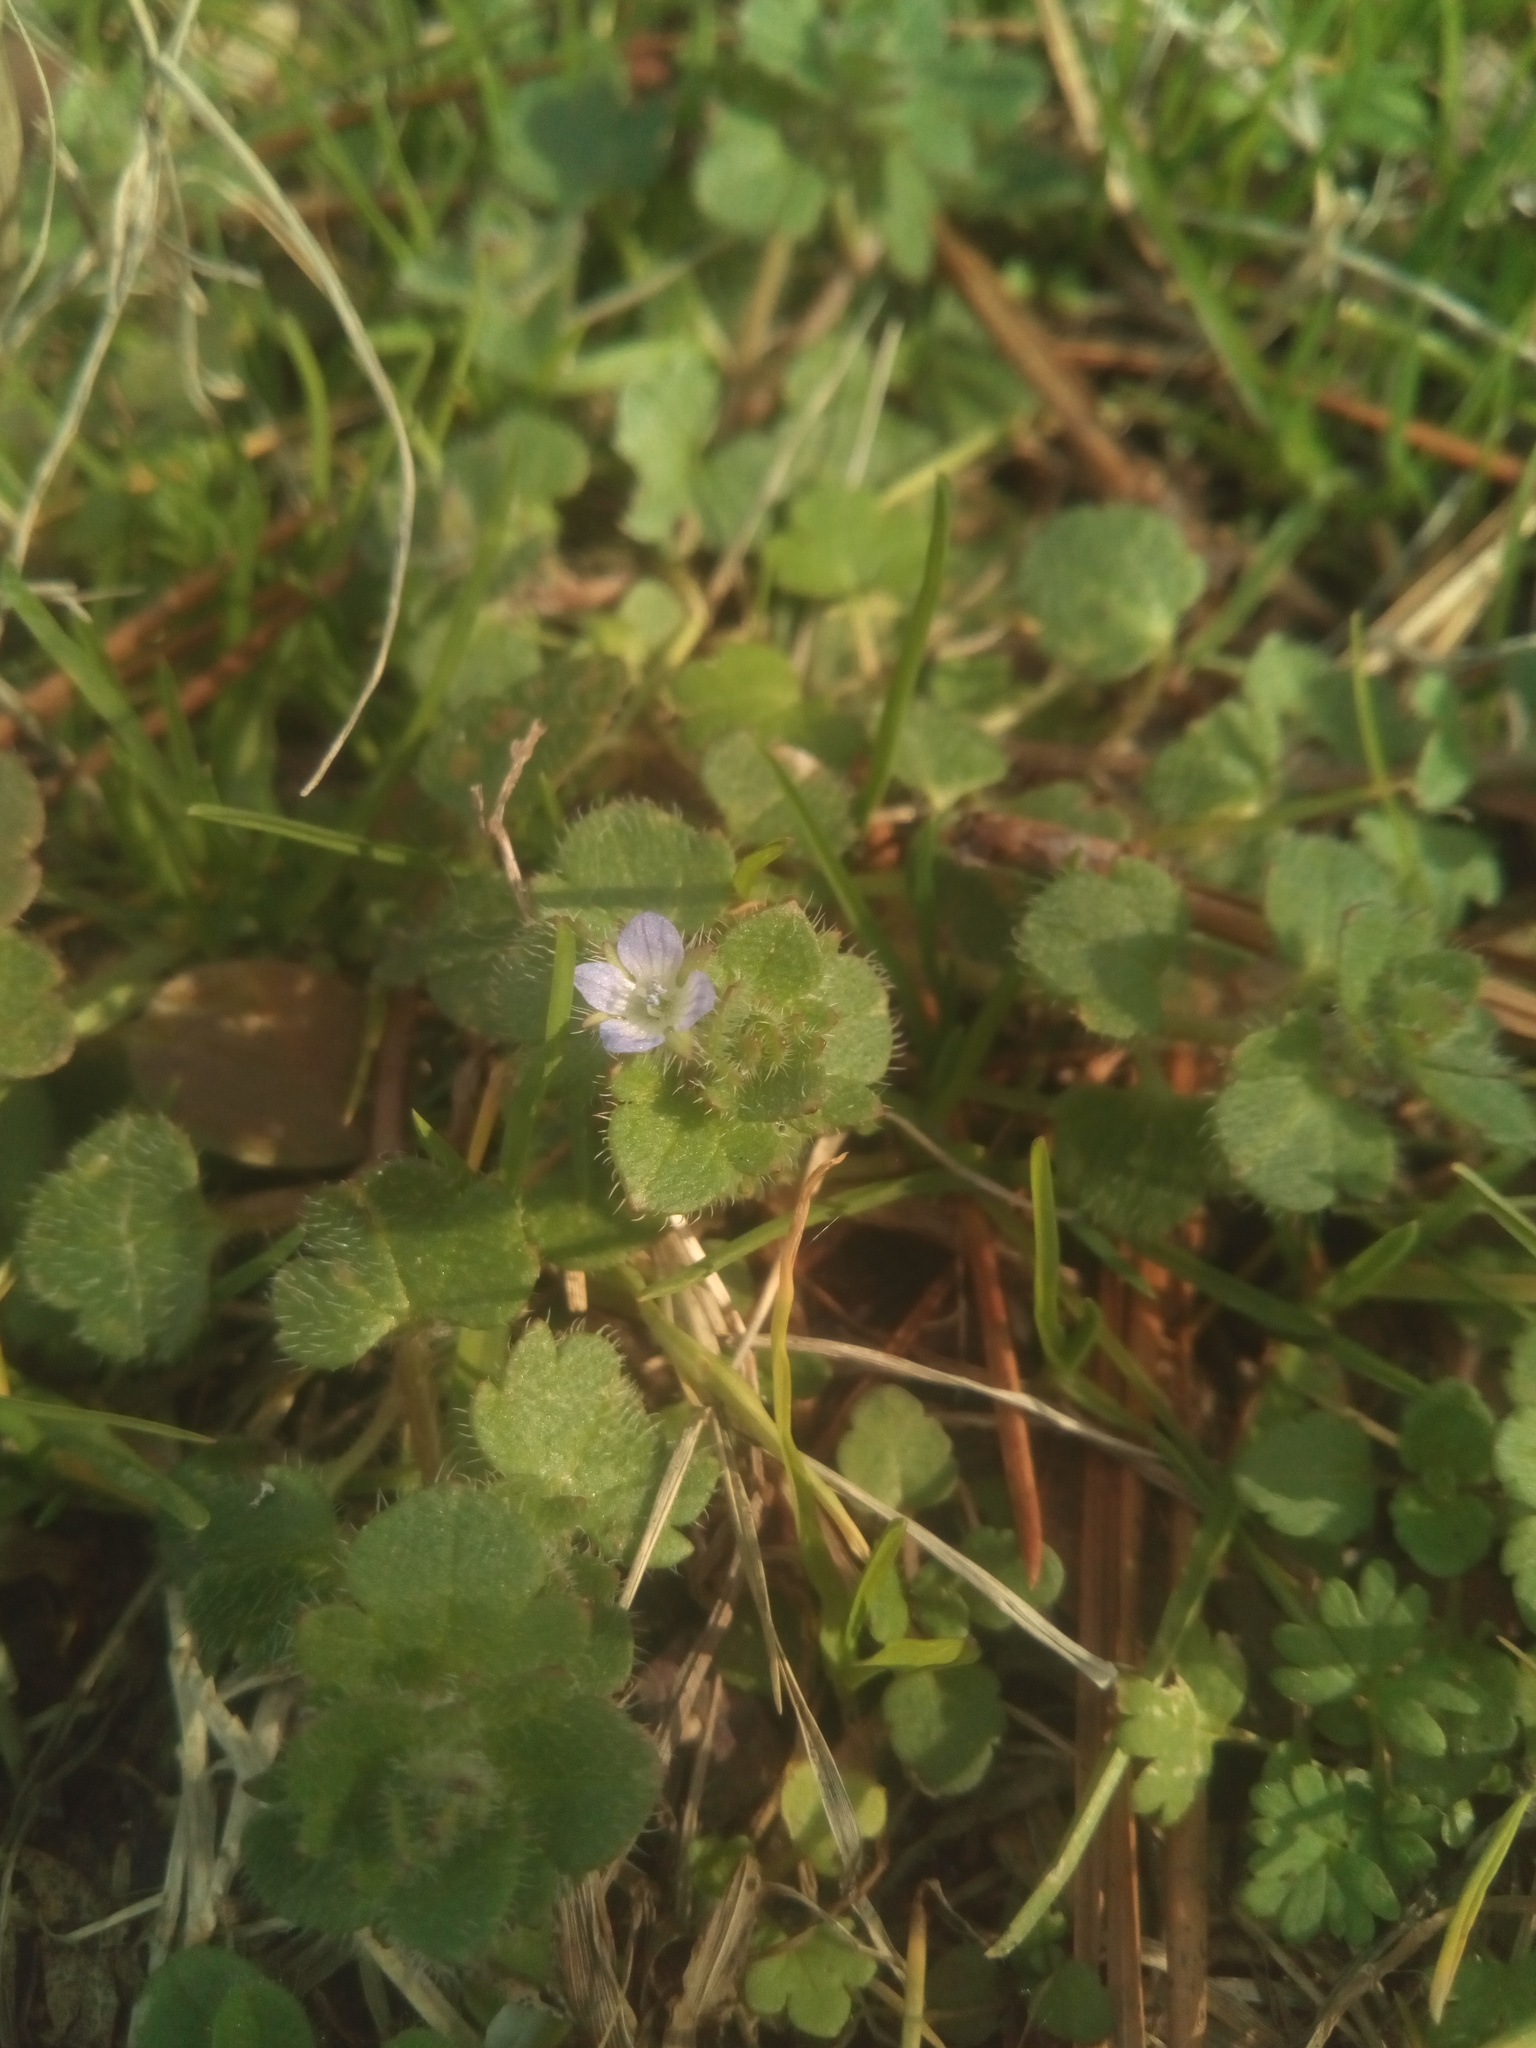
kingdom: Plantae
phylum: Tracheophyta
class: Magnoliopsida
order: Lamiales
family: Plantaginaceae
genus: Veronica
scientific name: Veronica hederifolia
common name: Ivy-leaved speedwell
